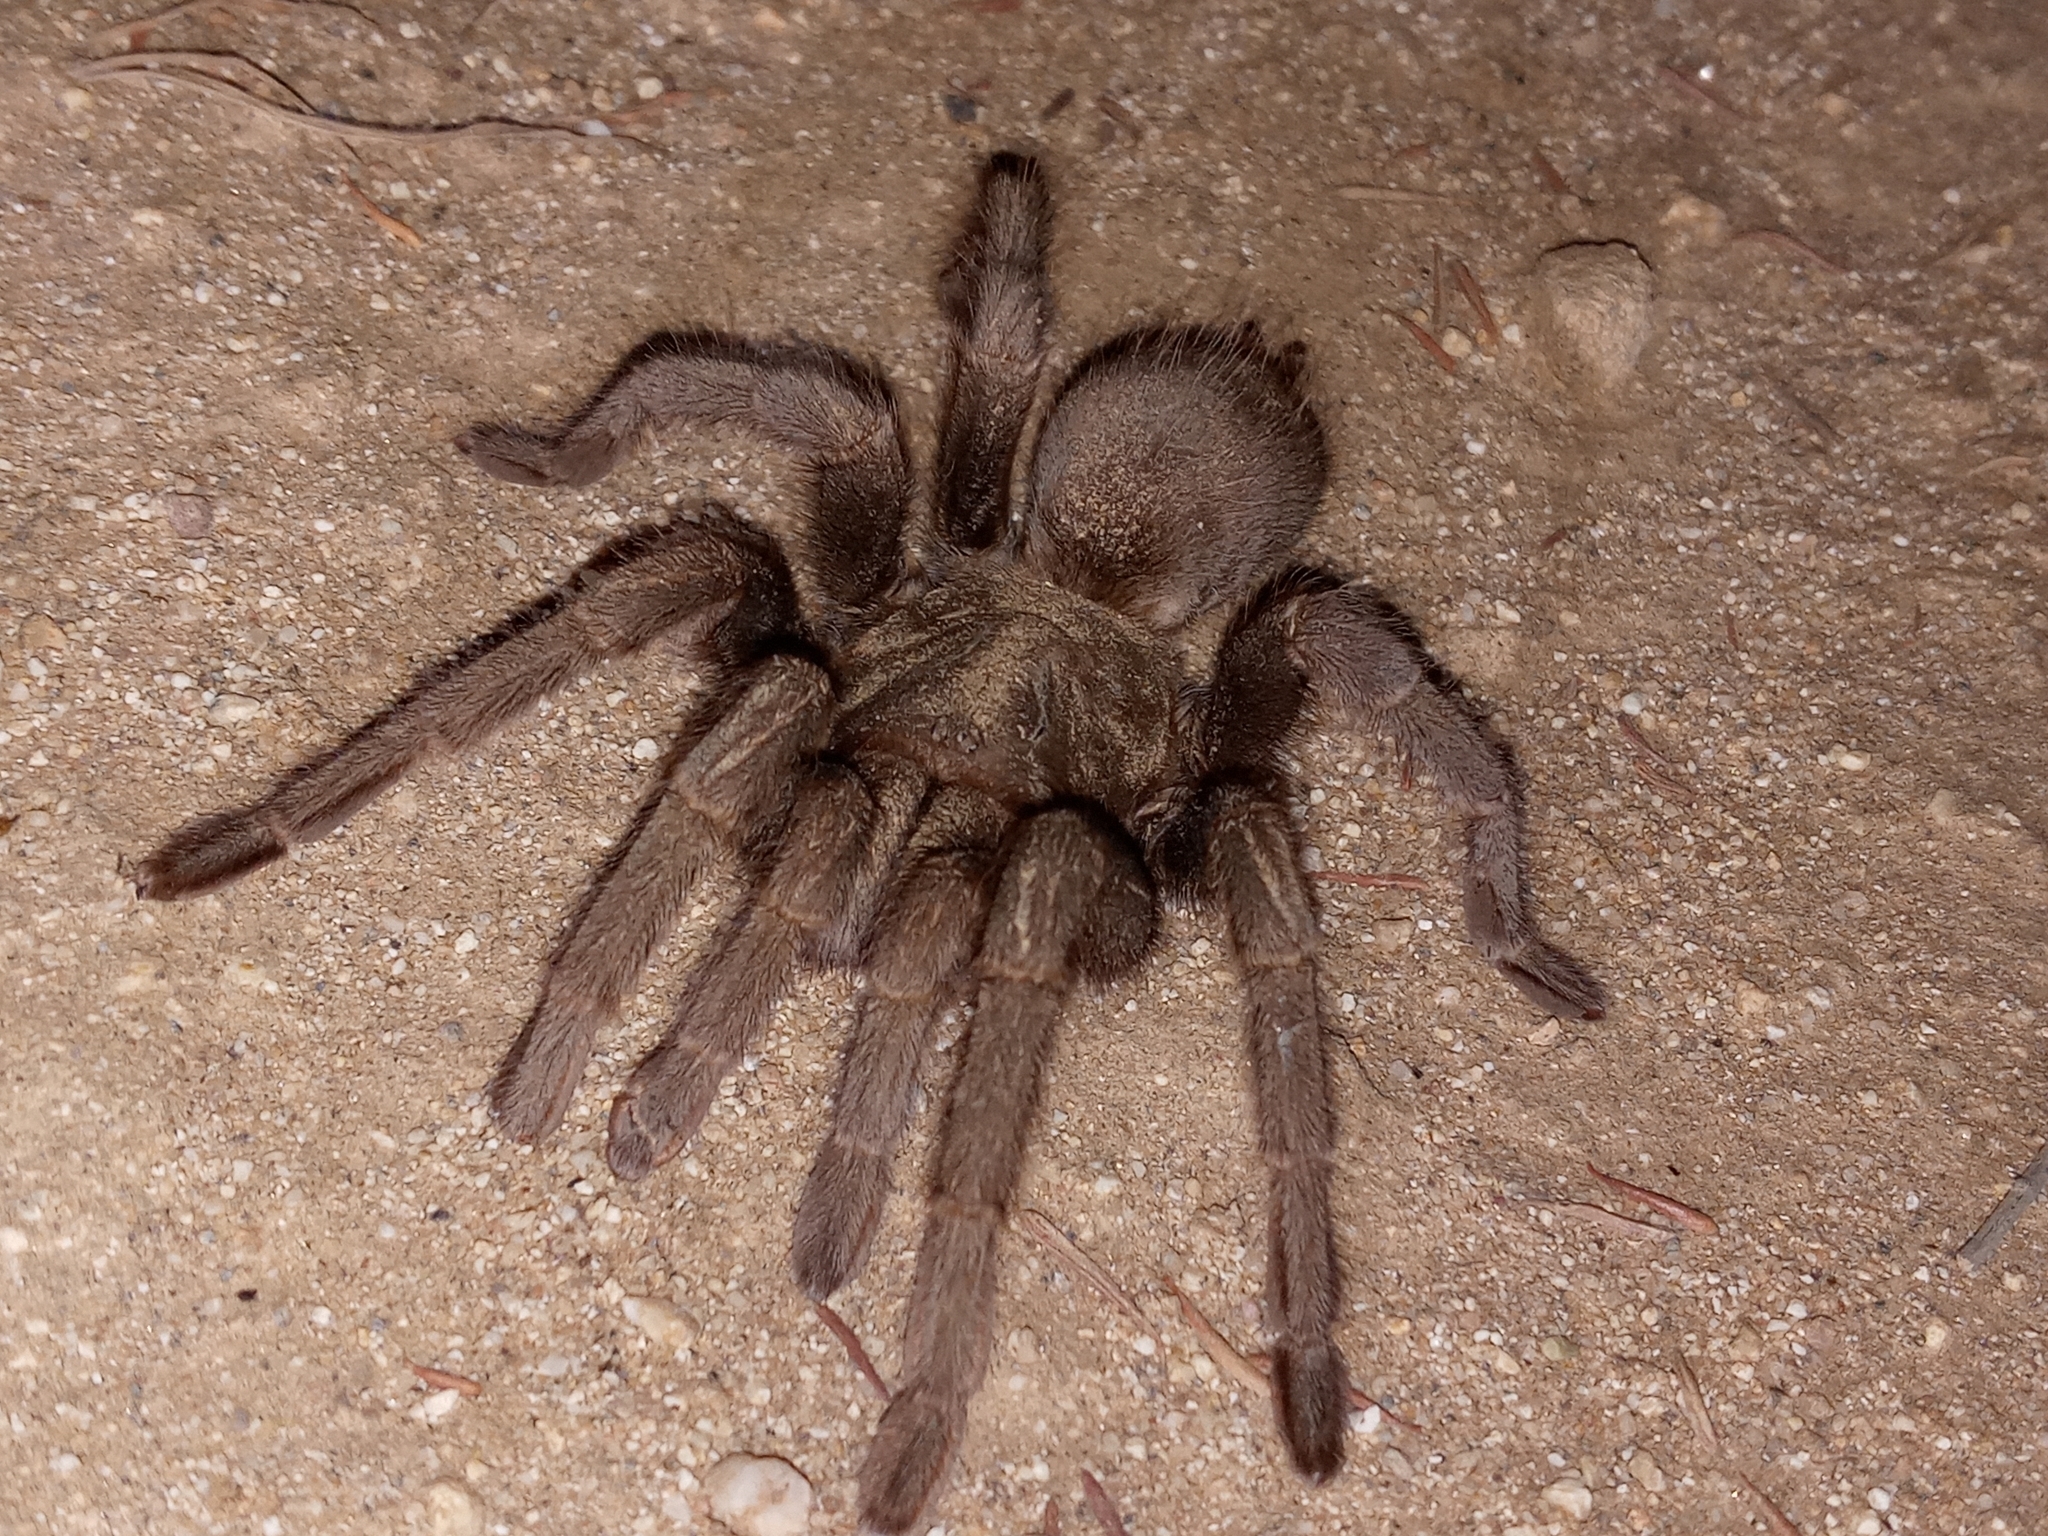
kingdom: Animalia
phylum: Arthropoda
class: Arachnida
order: Araneae
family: Theraphosidae
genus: Aphonopelma
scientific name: Aphonopelma steindachneri
